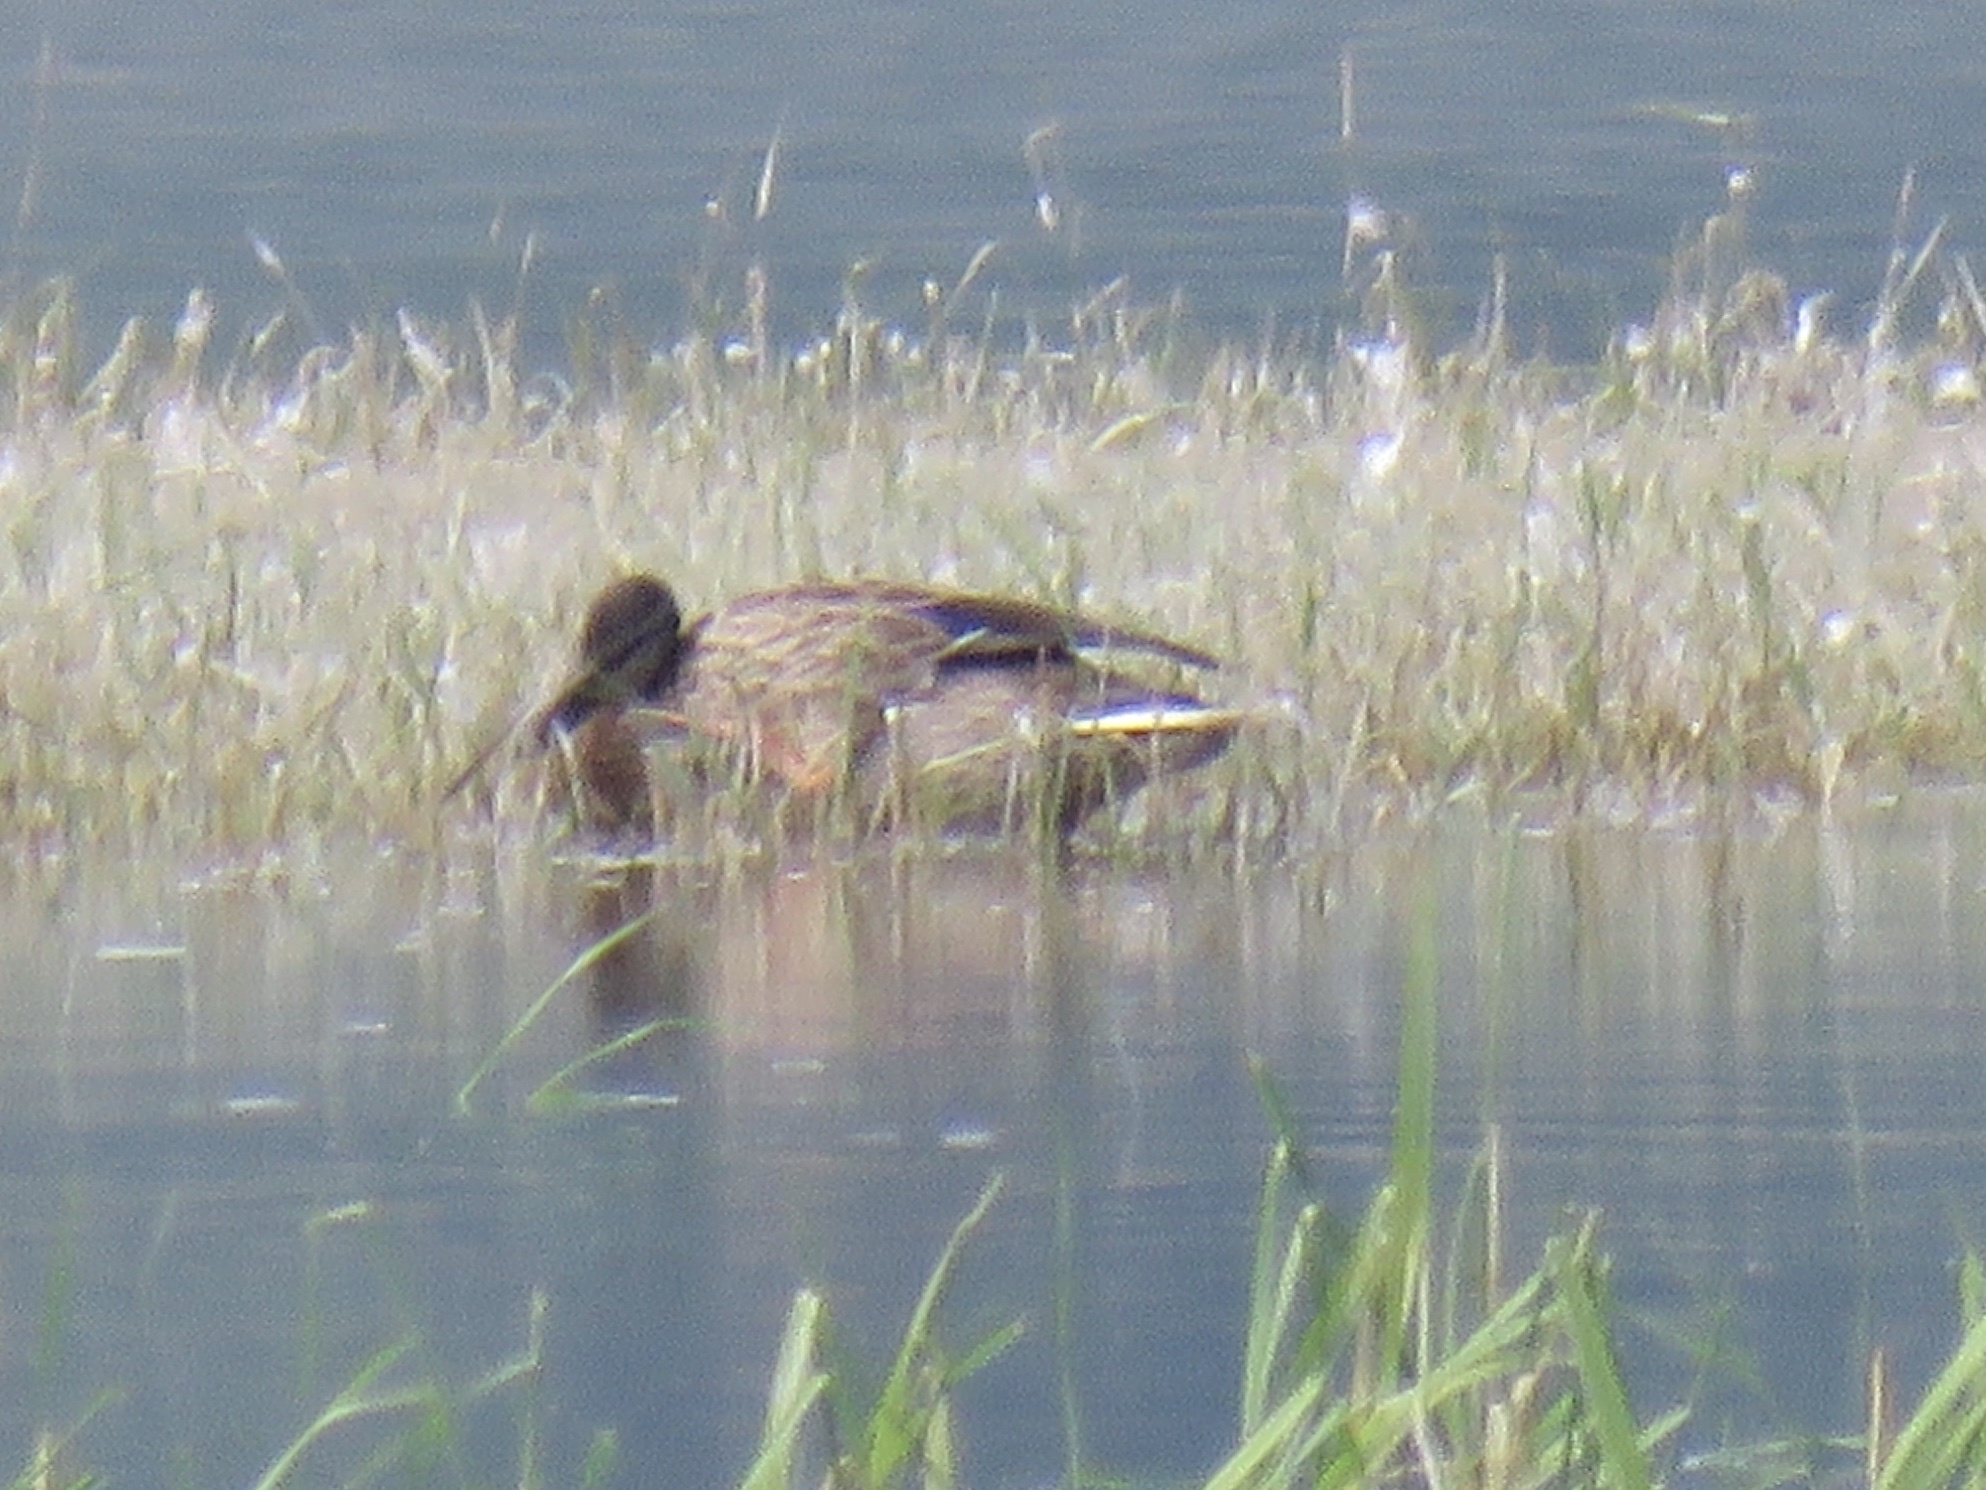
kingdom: Animalia
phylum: Chordata
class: Aves
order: Anseriformes
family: Anatidae
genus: Anas
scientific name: Anas platyrhynchos
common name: Mallard
